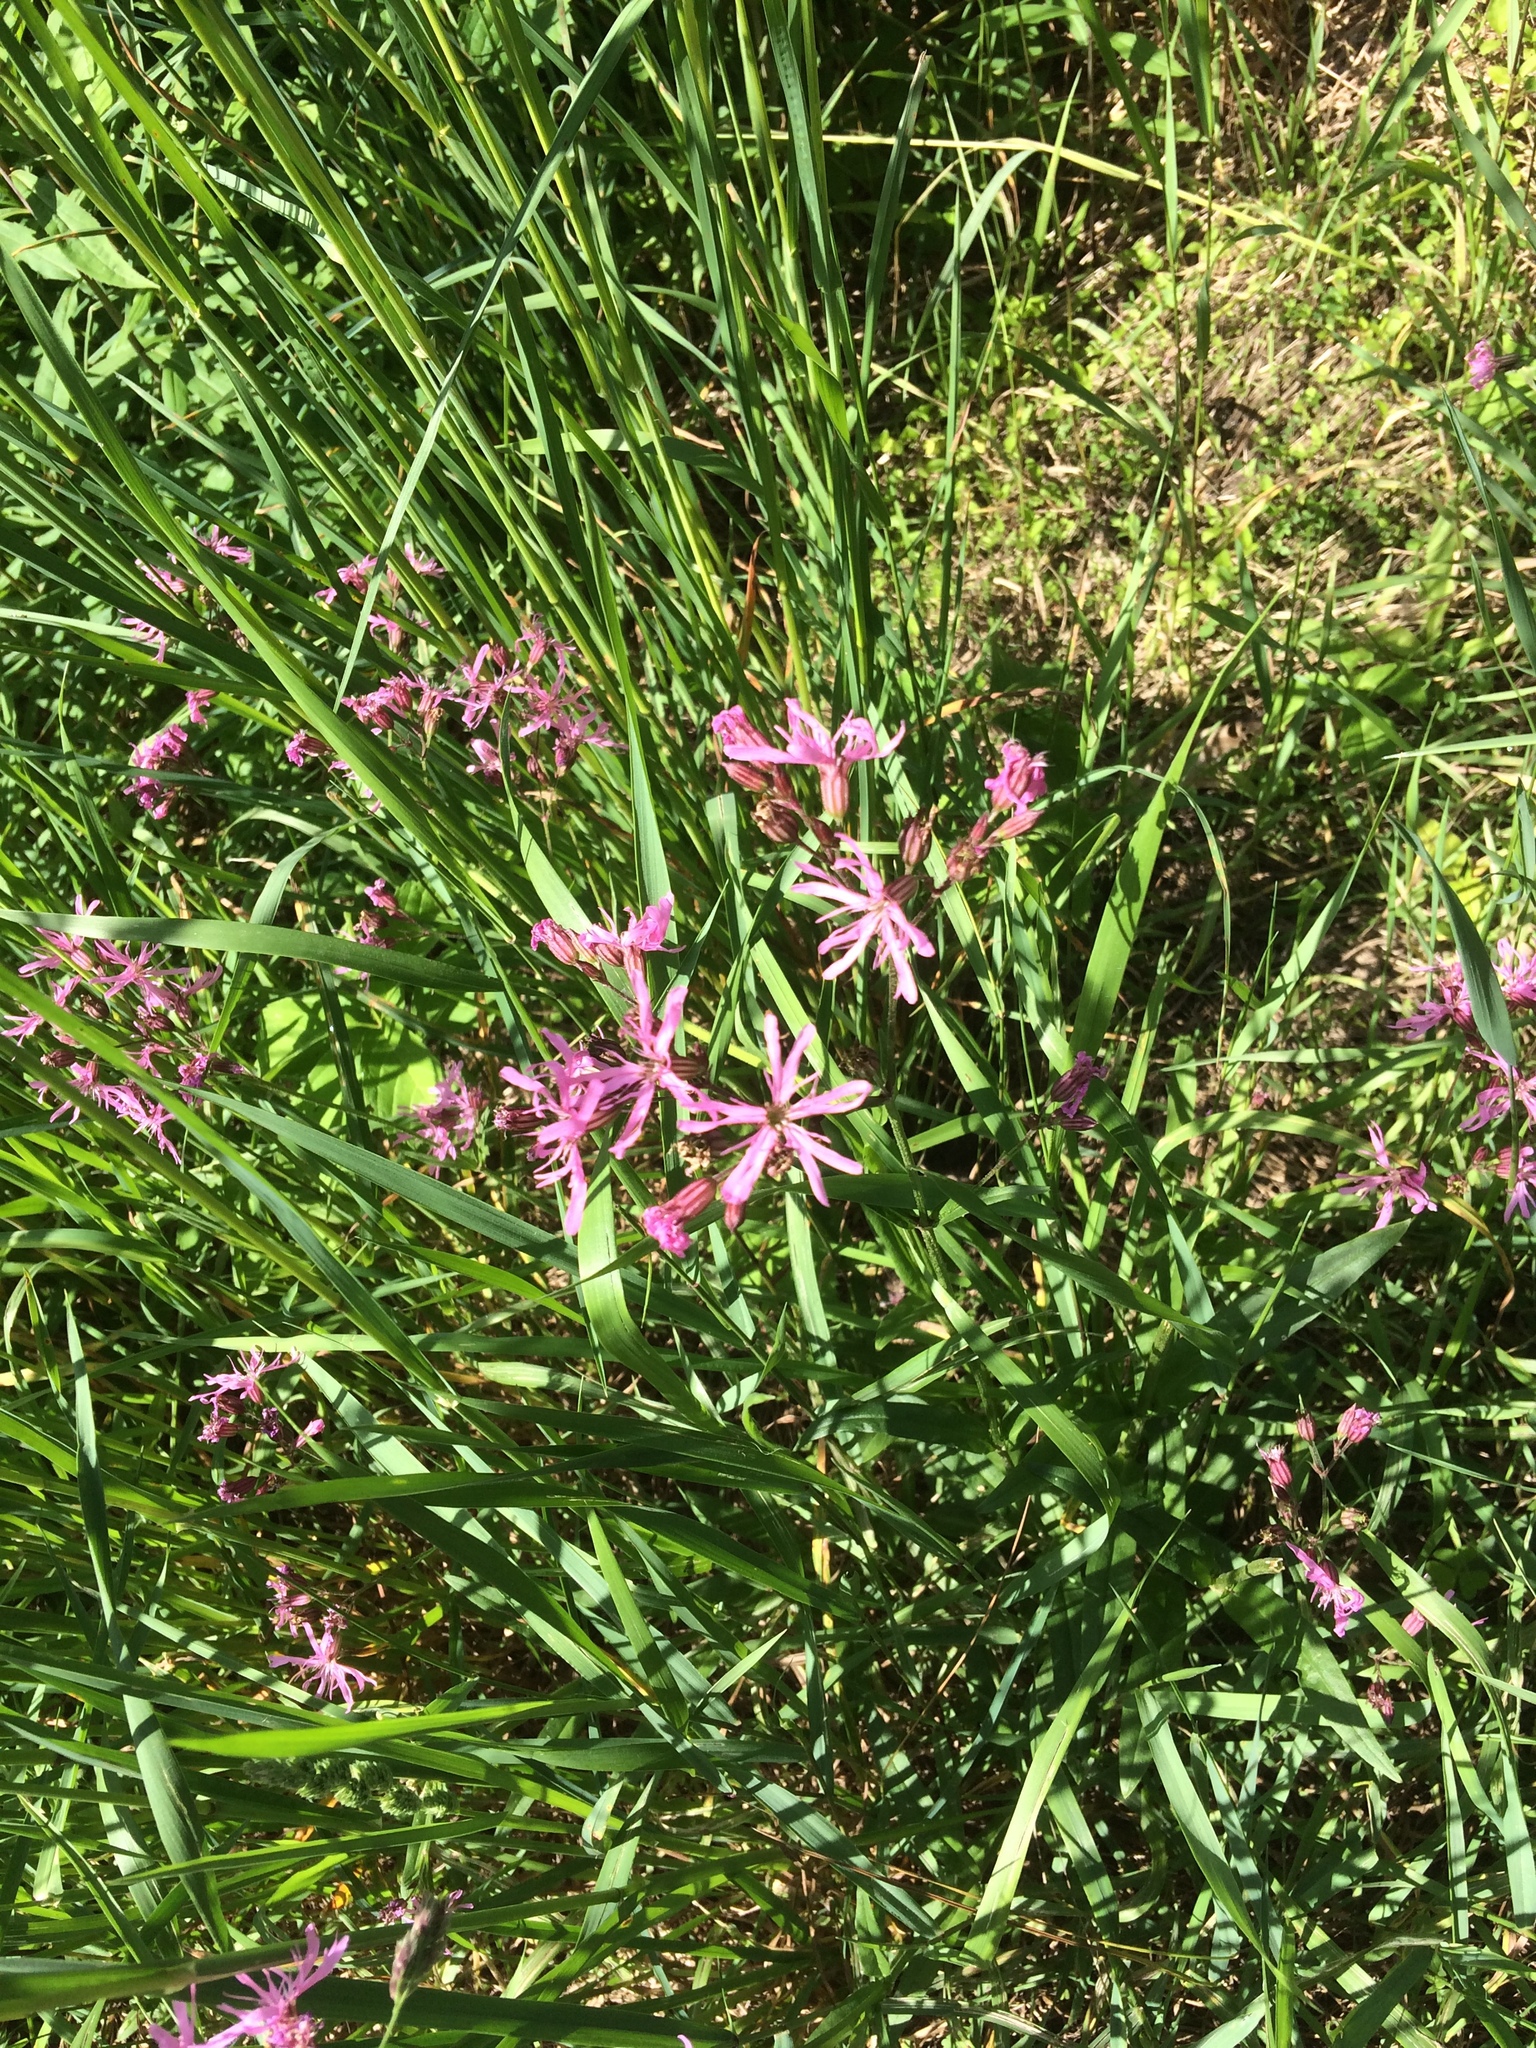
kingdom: Plantae
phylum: Tracheophyta
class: Magnoliopsida
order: Caryophyllales
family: Caryophyllaceae
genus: Silene
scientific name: Silene flos-cuculi
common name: Ragged-robin
